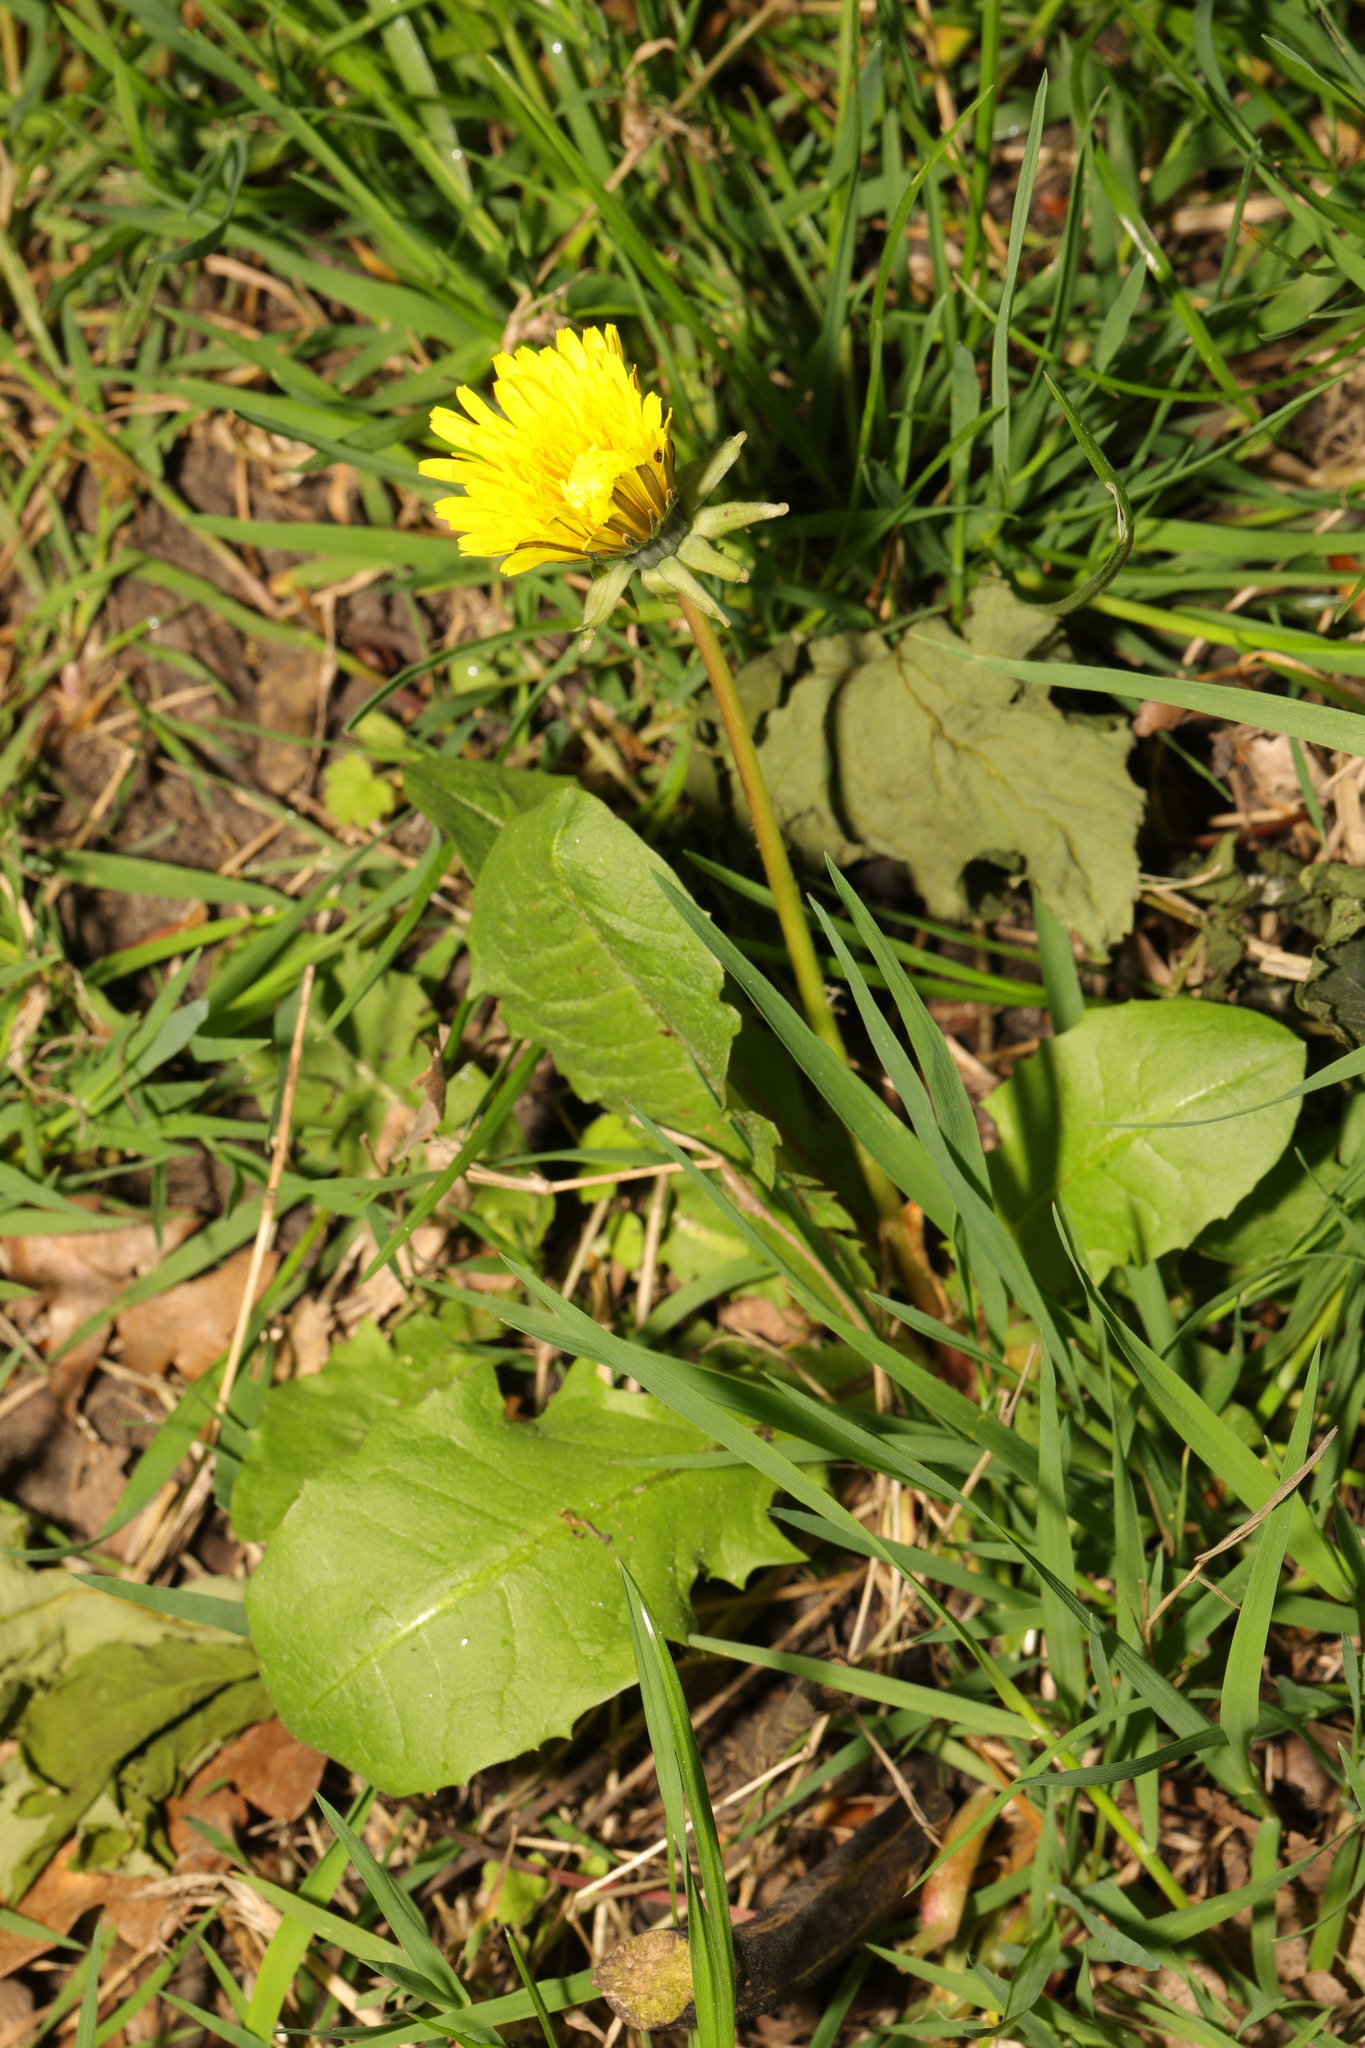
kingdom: Plantae
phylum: Tracheophyta
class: Magnoliopsida
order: Asterales
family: Asteraceae
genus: Taraxacum
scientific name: Taraxacum officinale
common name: Common dandelion
